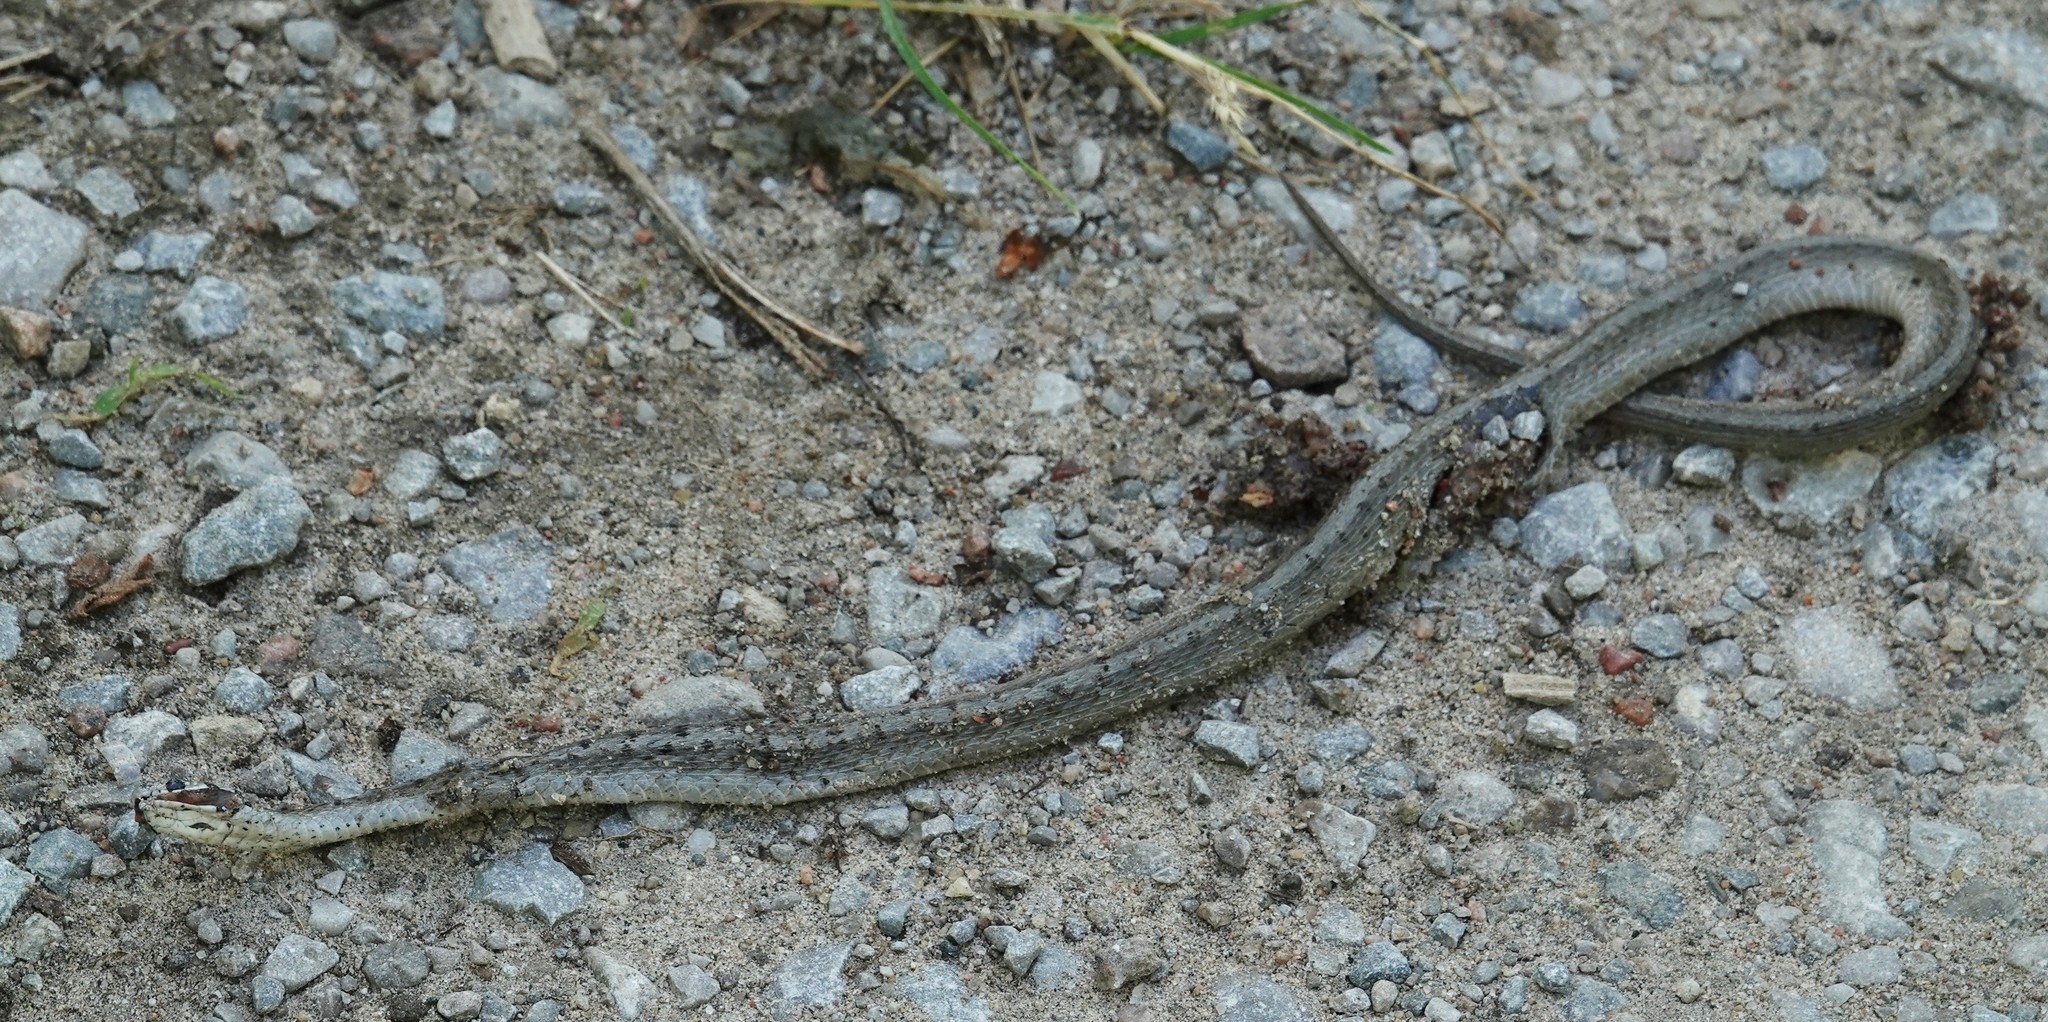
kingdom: Animalia
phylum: Chordata
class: Squamata
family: Colubridae
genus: Storeria
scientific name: Storeria dekayi
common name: (dekay’s) brown snake
